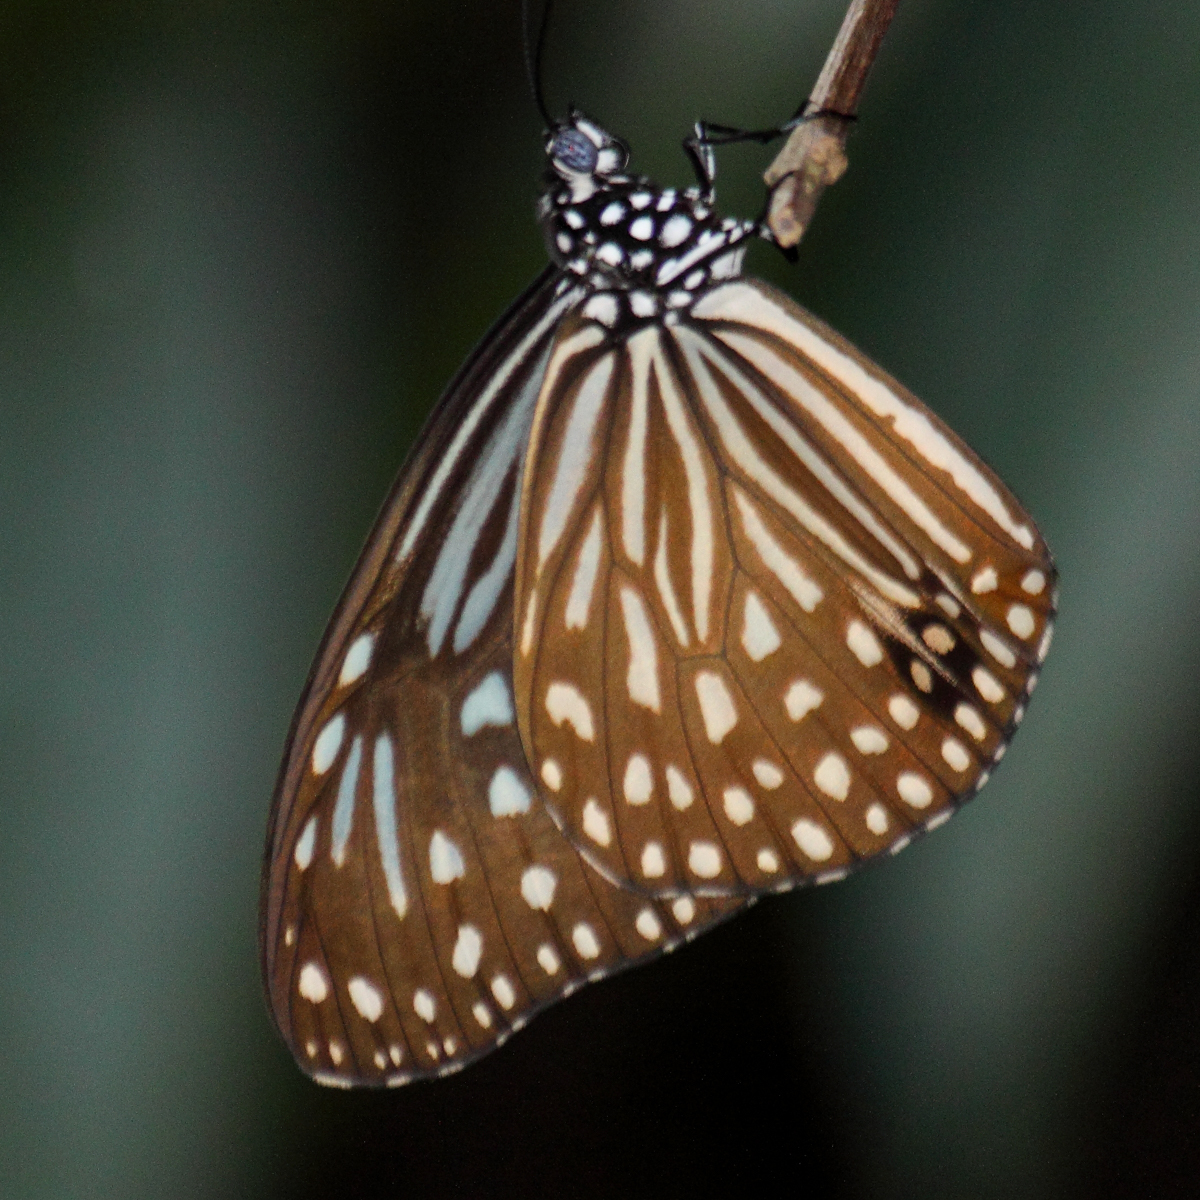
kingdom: Animalia
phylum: Arthropoda
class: Insecta
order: Lepidoptera
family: Nymphalidae
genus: Parantica
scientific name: Parantica agleoides
